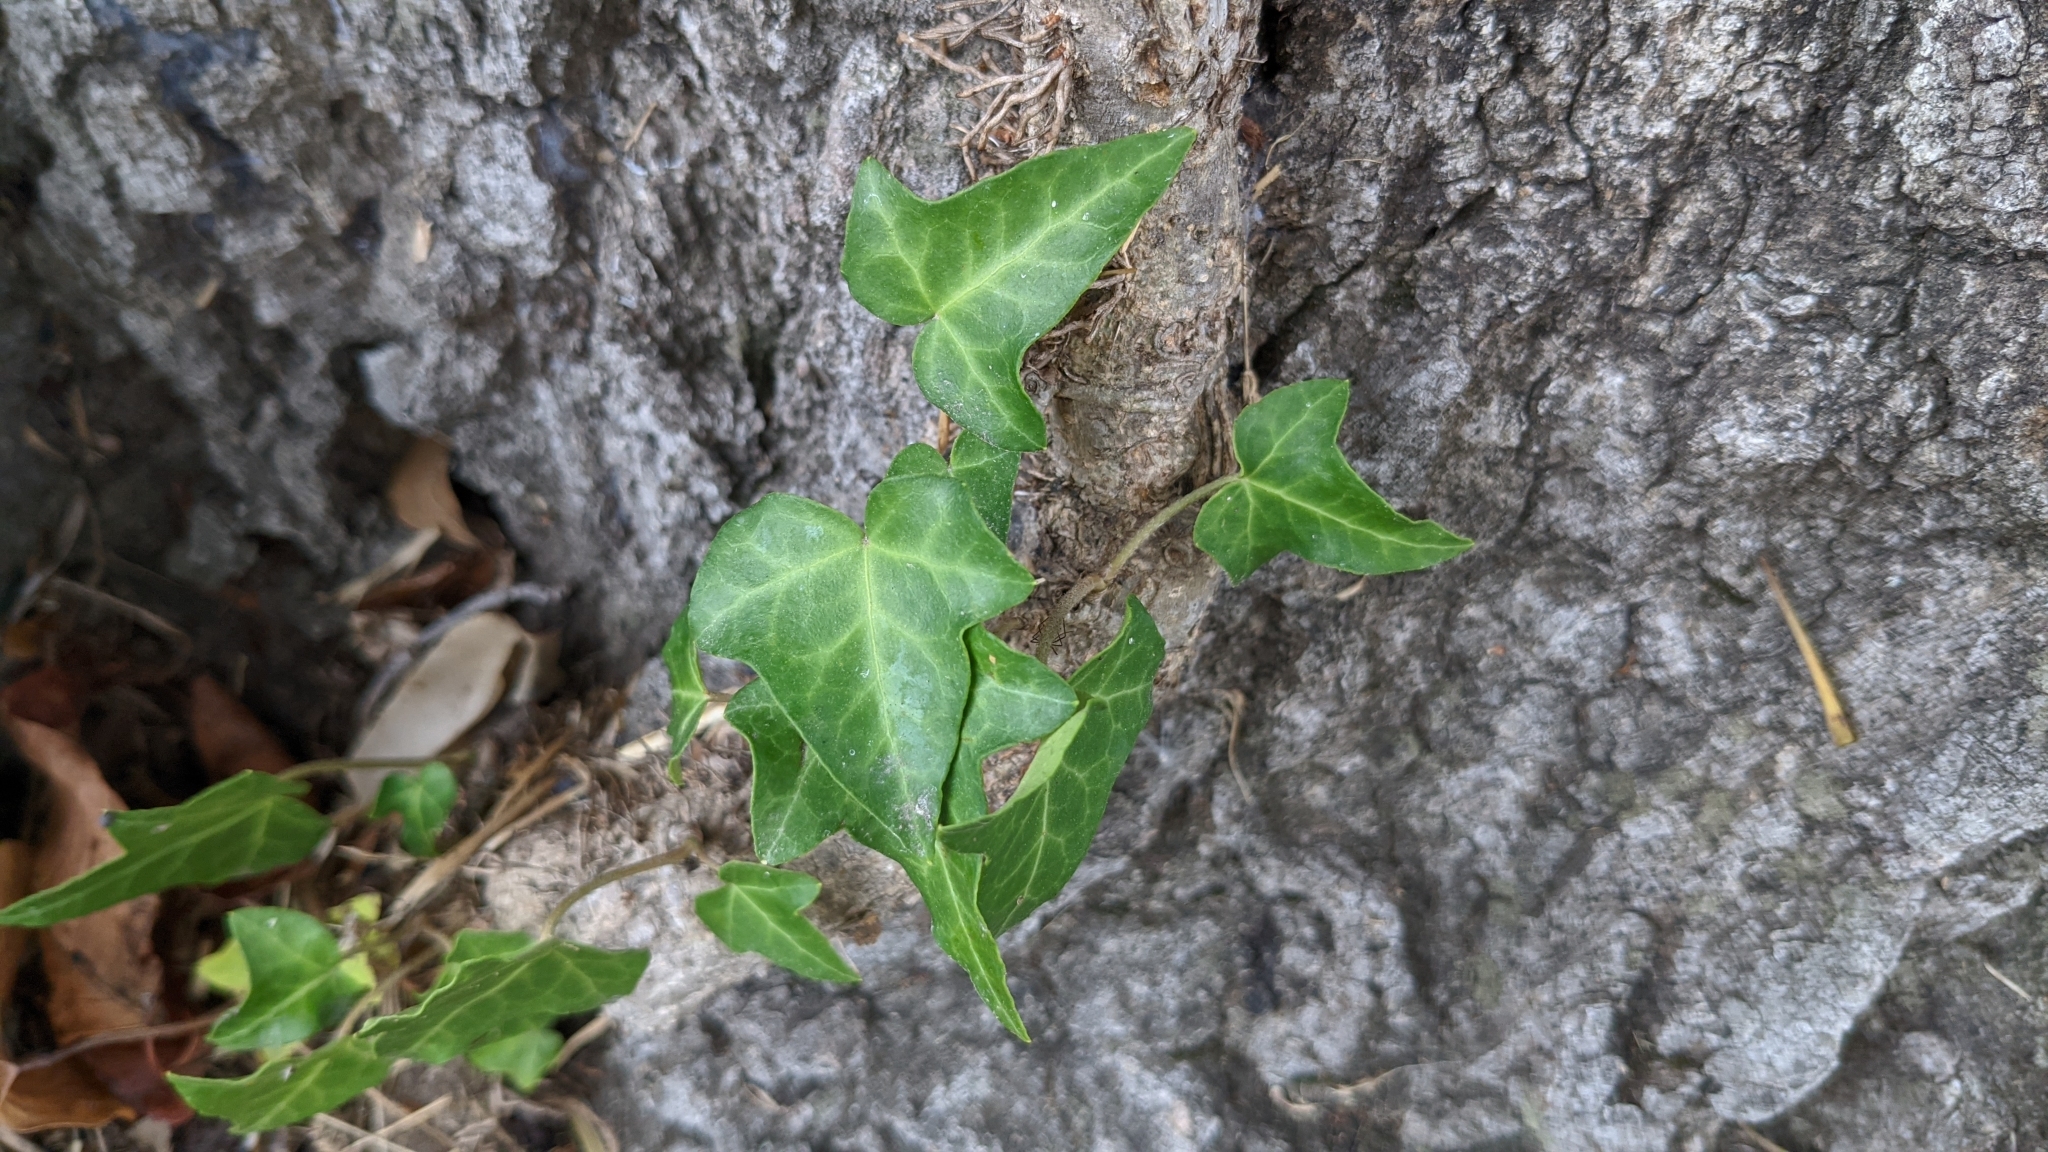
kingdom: Plantae
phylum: Tracheophyta
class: Magnoliopsida
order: Apiales
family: Araliaceae
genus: Hedera
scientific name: Hedera helix
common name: Ivy
